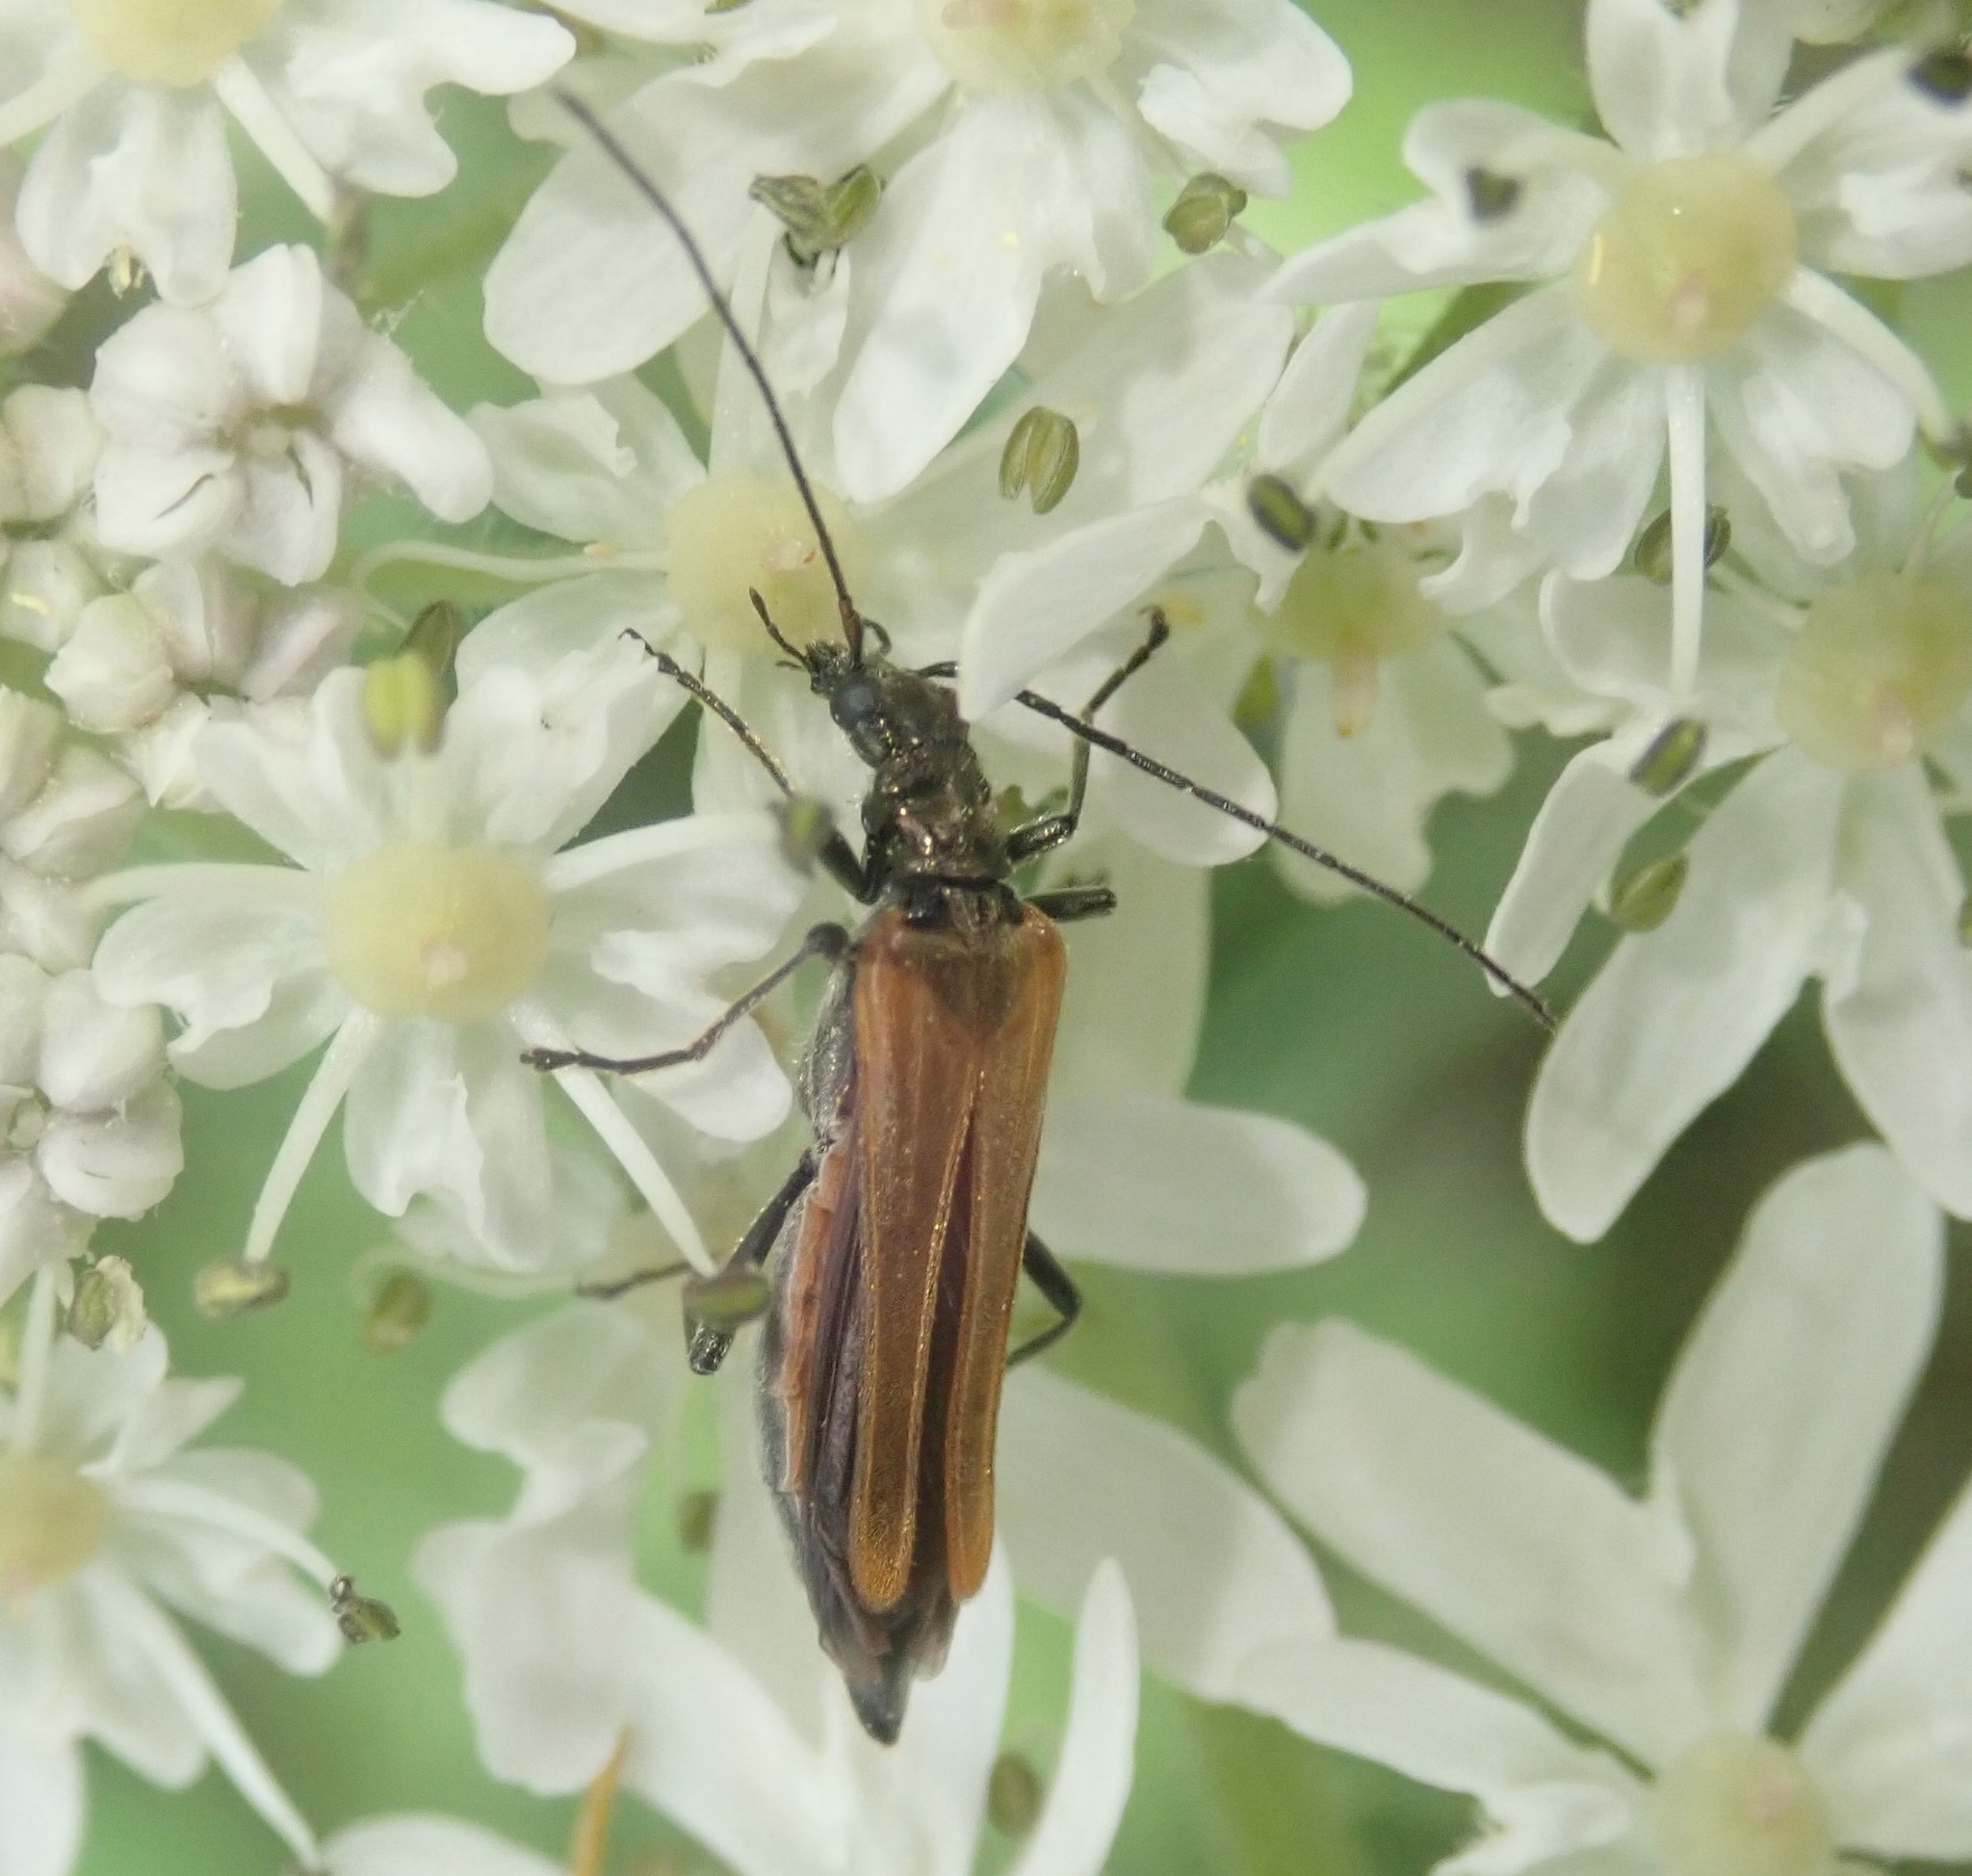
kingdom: Animalia
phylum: Arthropoda
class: Insecta
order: Coleoptera
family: Oedemeridae
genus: Oedemera
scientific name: Oedemera femorata
